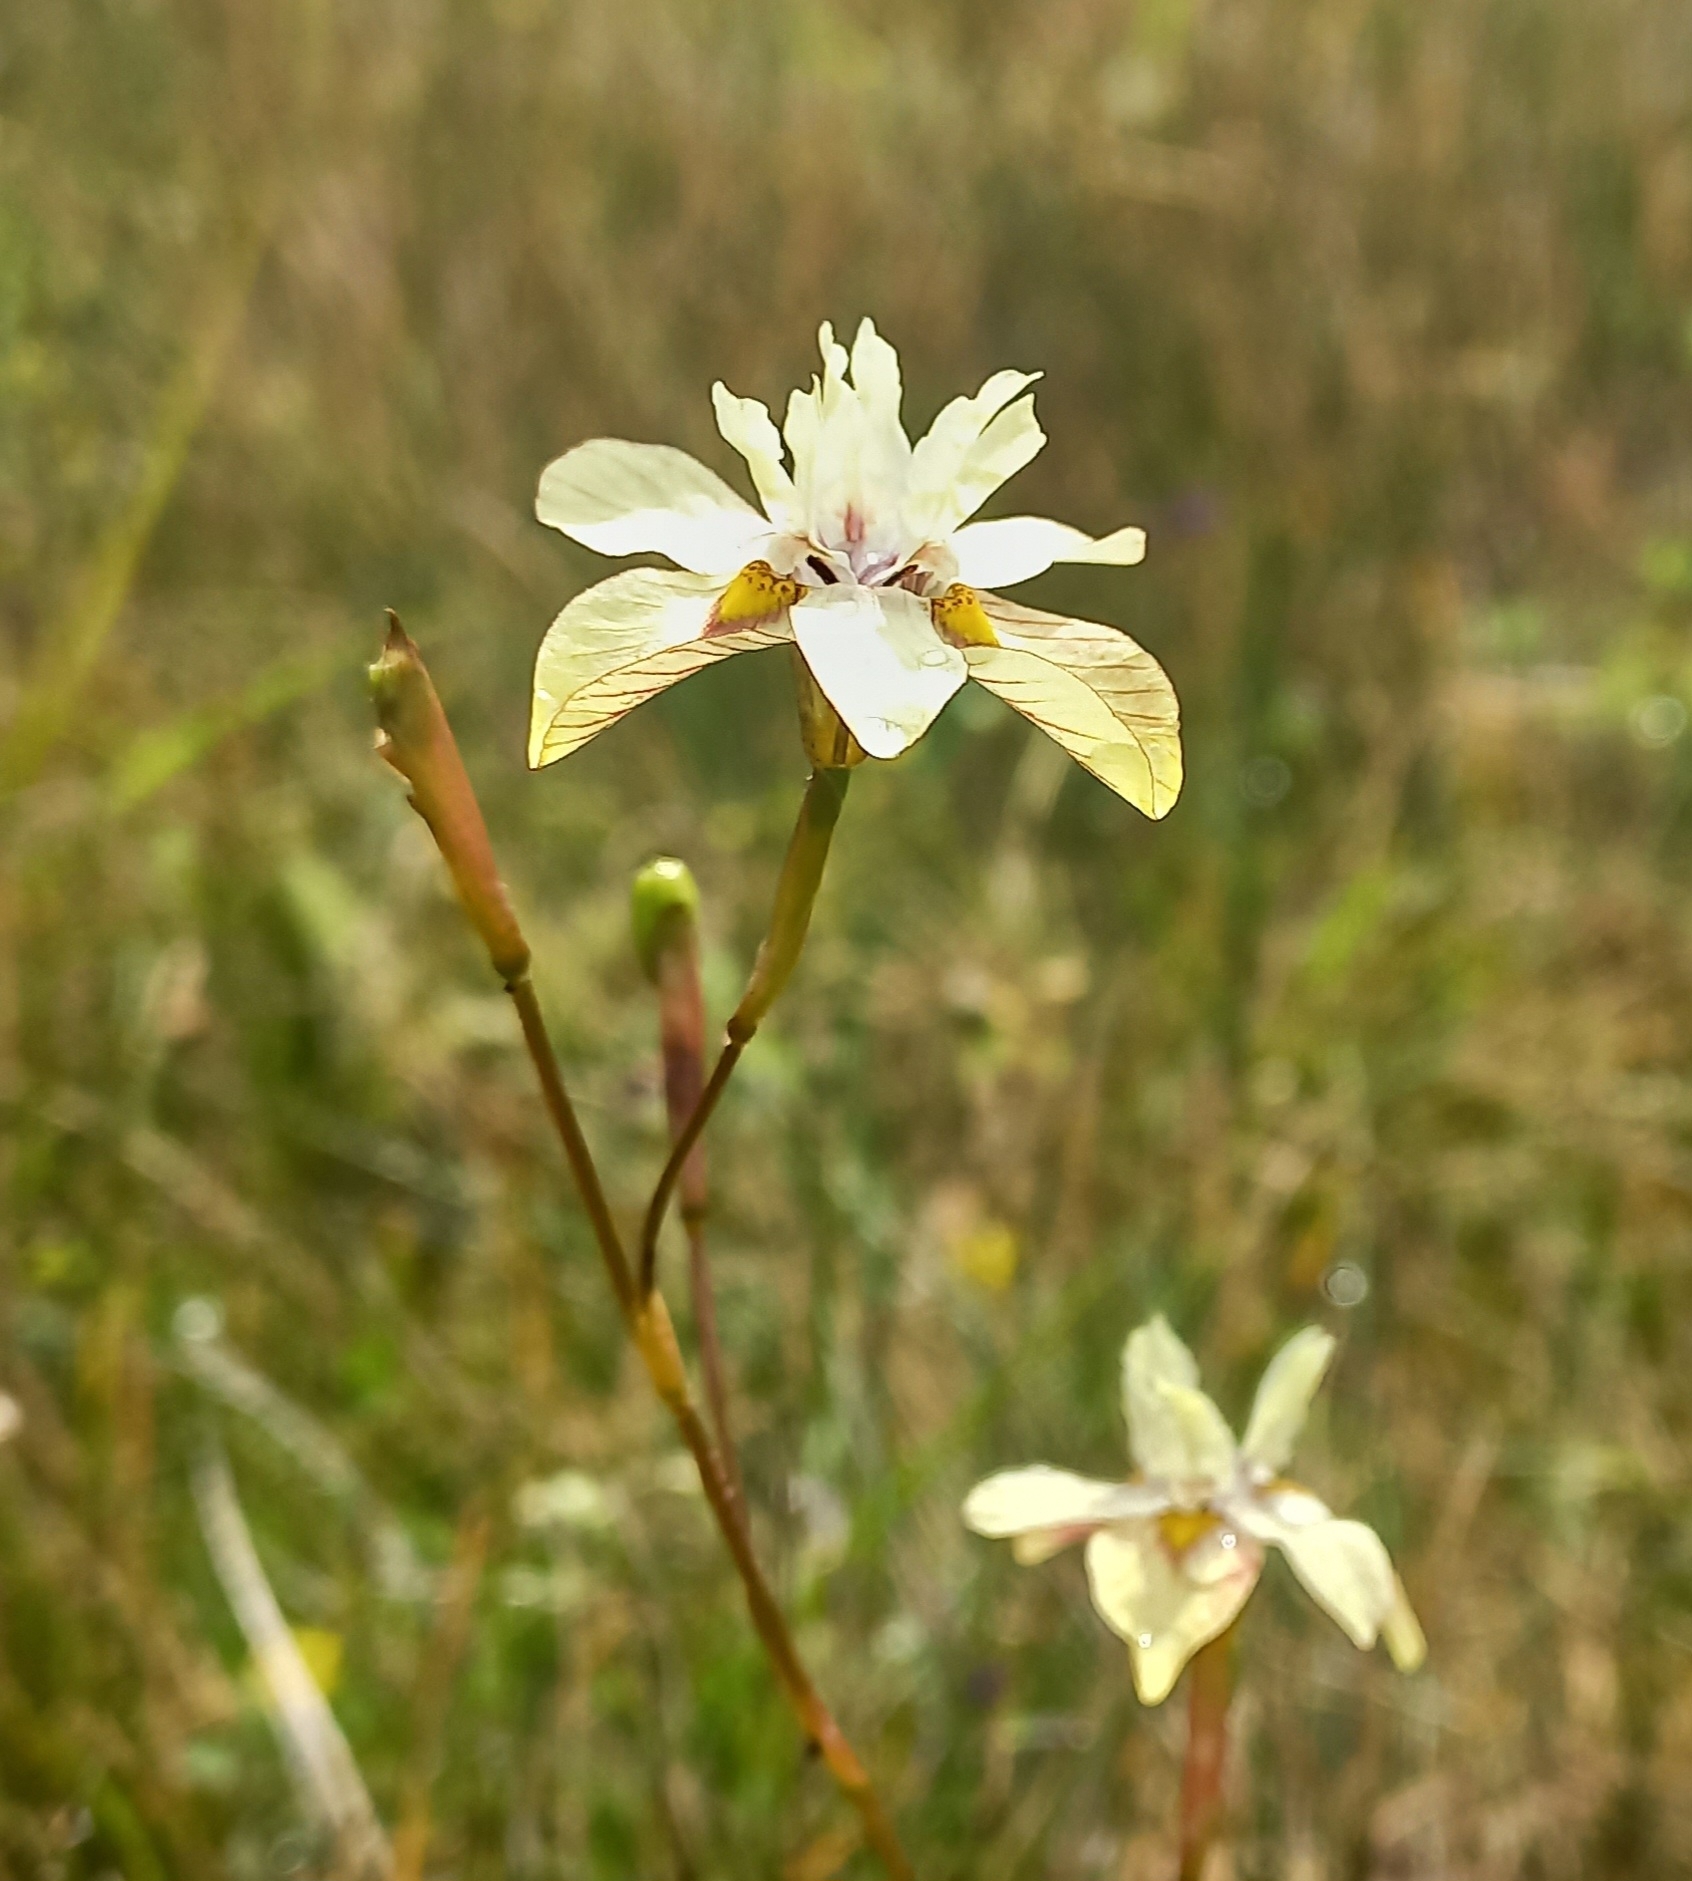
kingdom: Plantae
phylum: Tracheophyta
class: Liliopsida
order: Asparagales
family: Iridaceae
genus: Moraea
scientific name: Moraea gawleri
